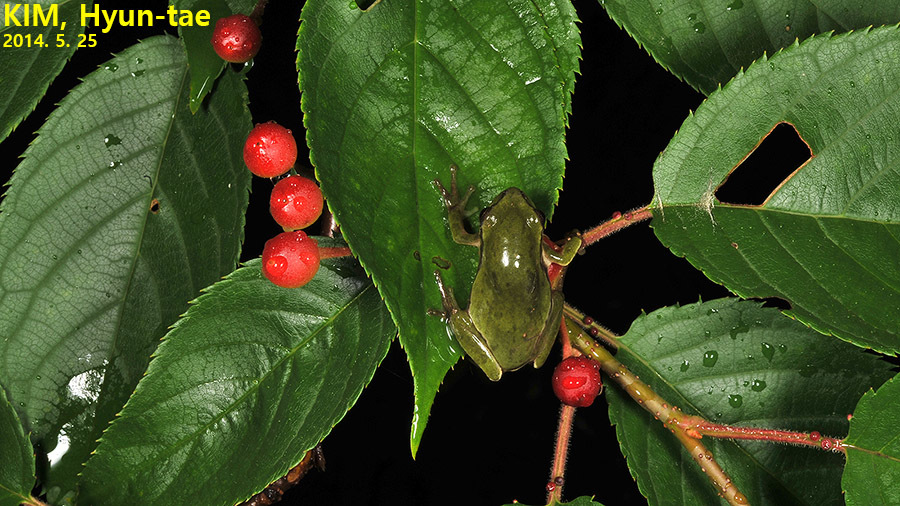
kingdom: Animalia
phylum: Chordata
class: Amphibia
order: Anura
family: Hylidae
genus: Dryophytes
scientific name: Dryophytes immaculatus
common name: North china treefrog
